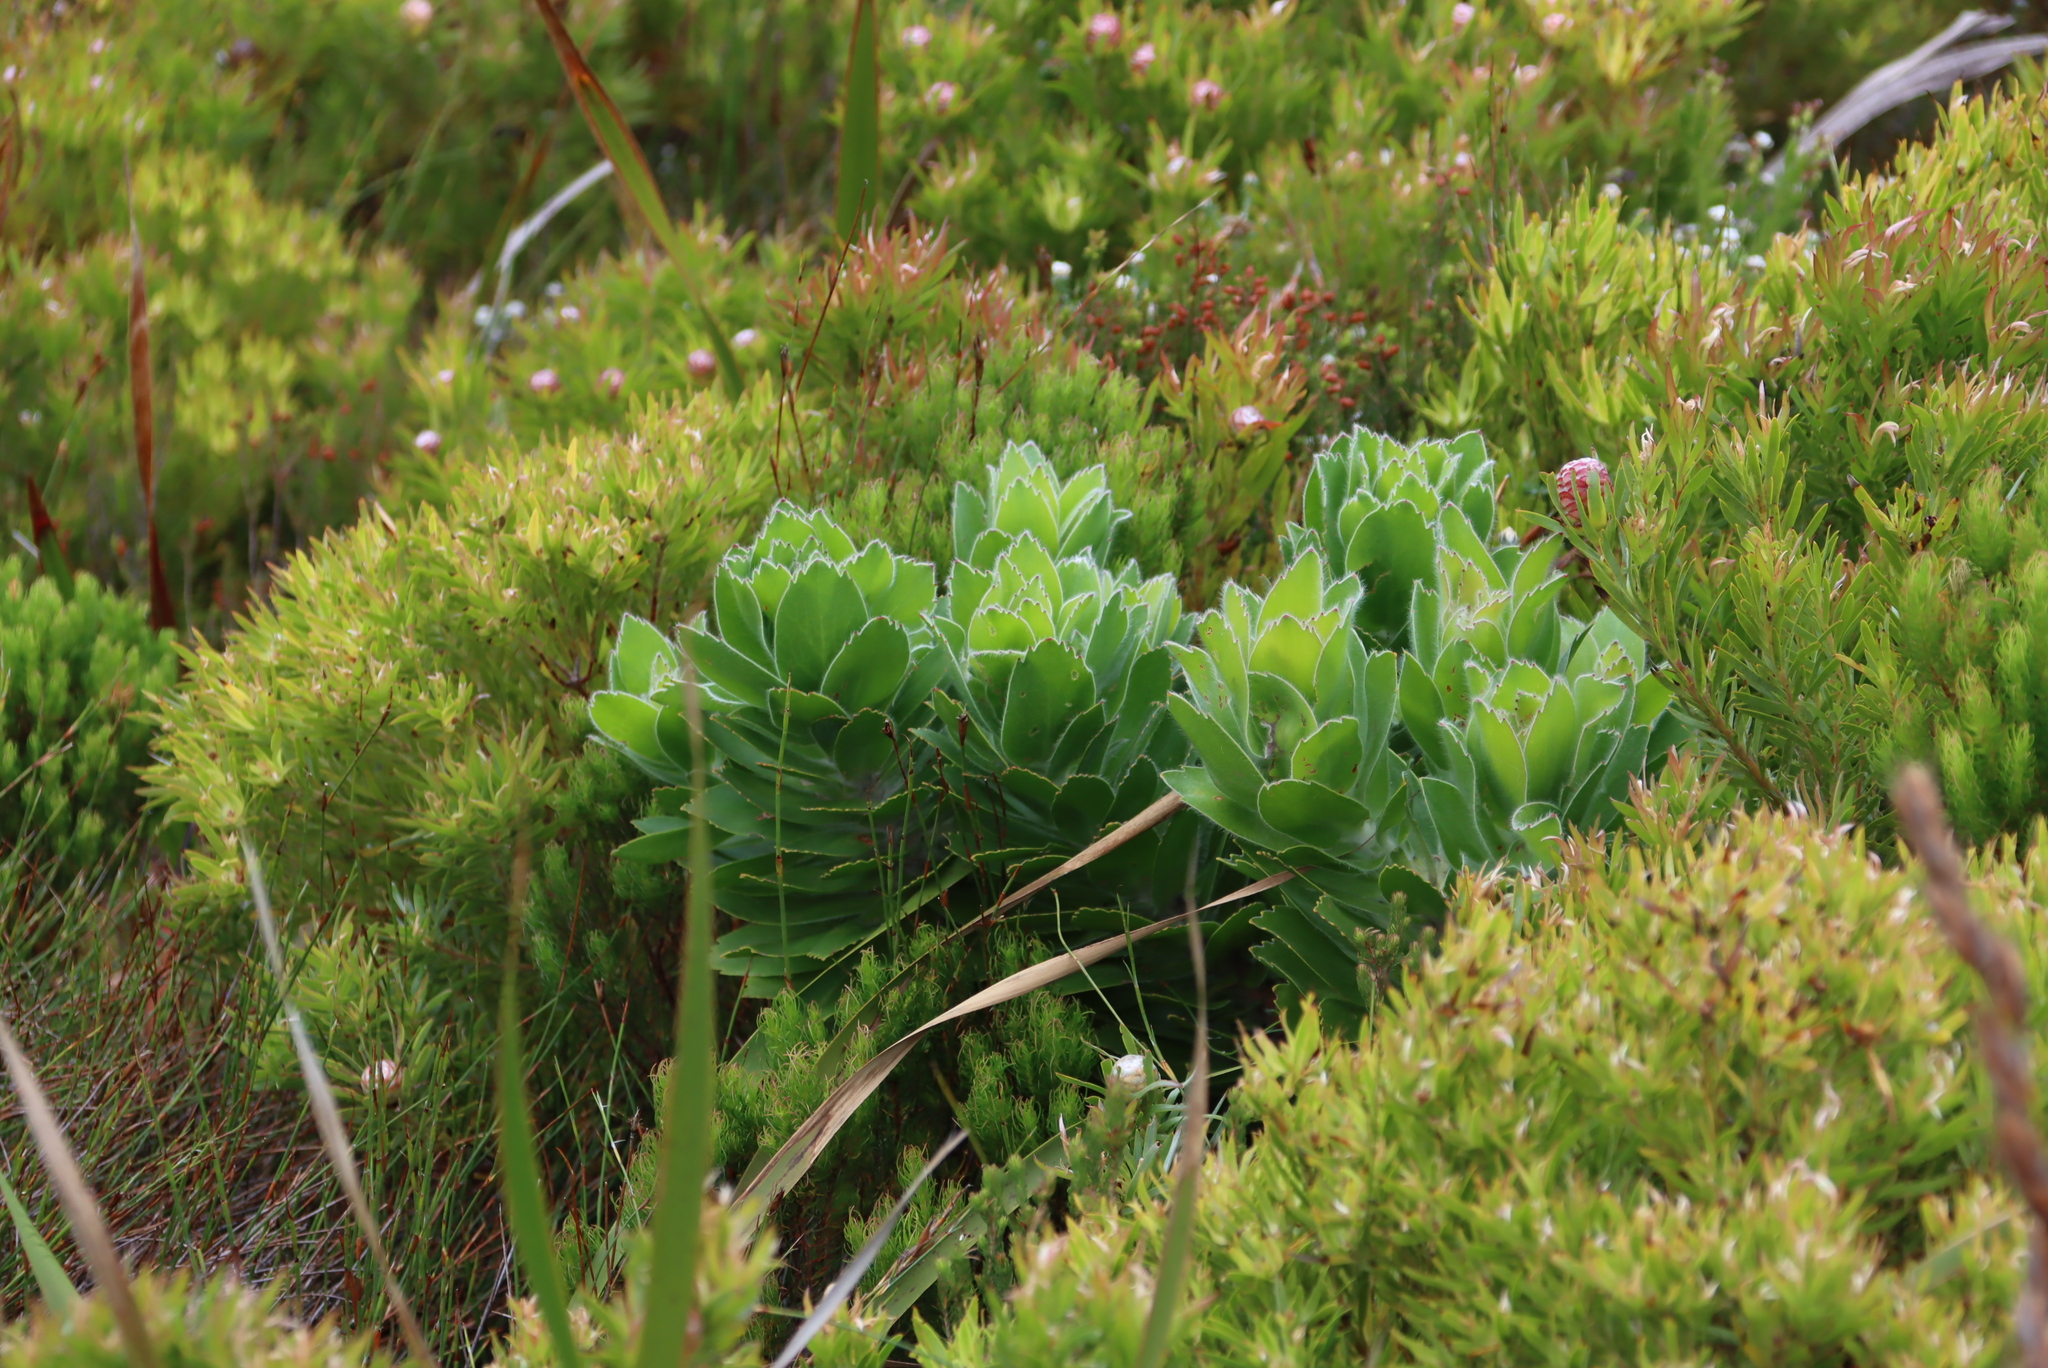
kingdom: Plantae
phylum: Tracheophyta
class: Magnoliopsida
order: Proteales
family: Proteaceae
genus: Leucospermum
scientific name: Leucospermum conocarpodendron
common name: Tree pincushion
